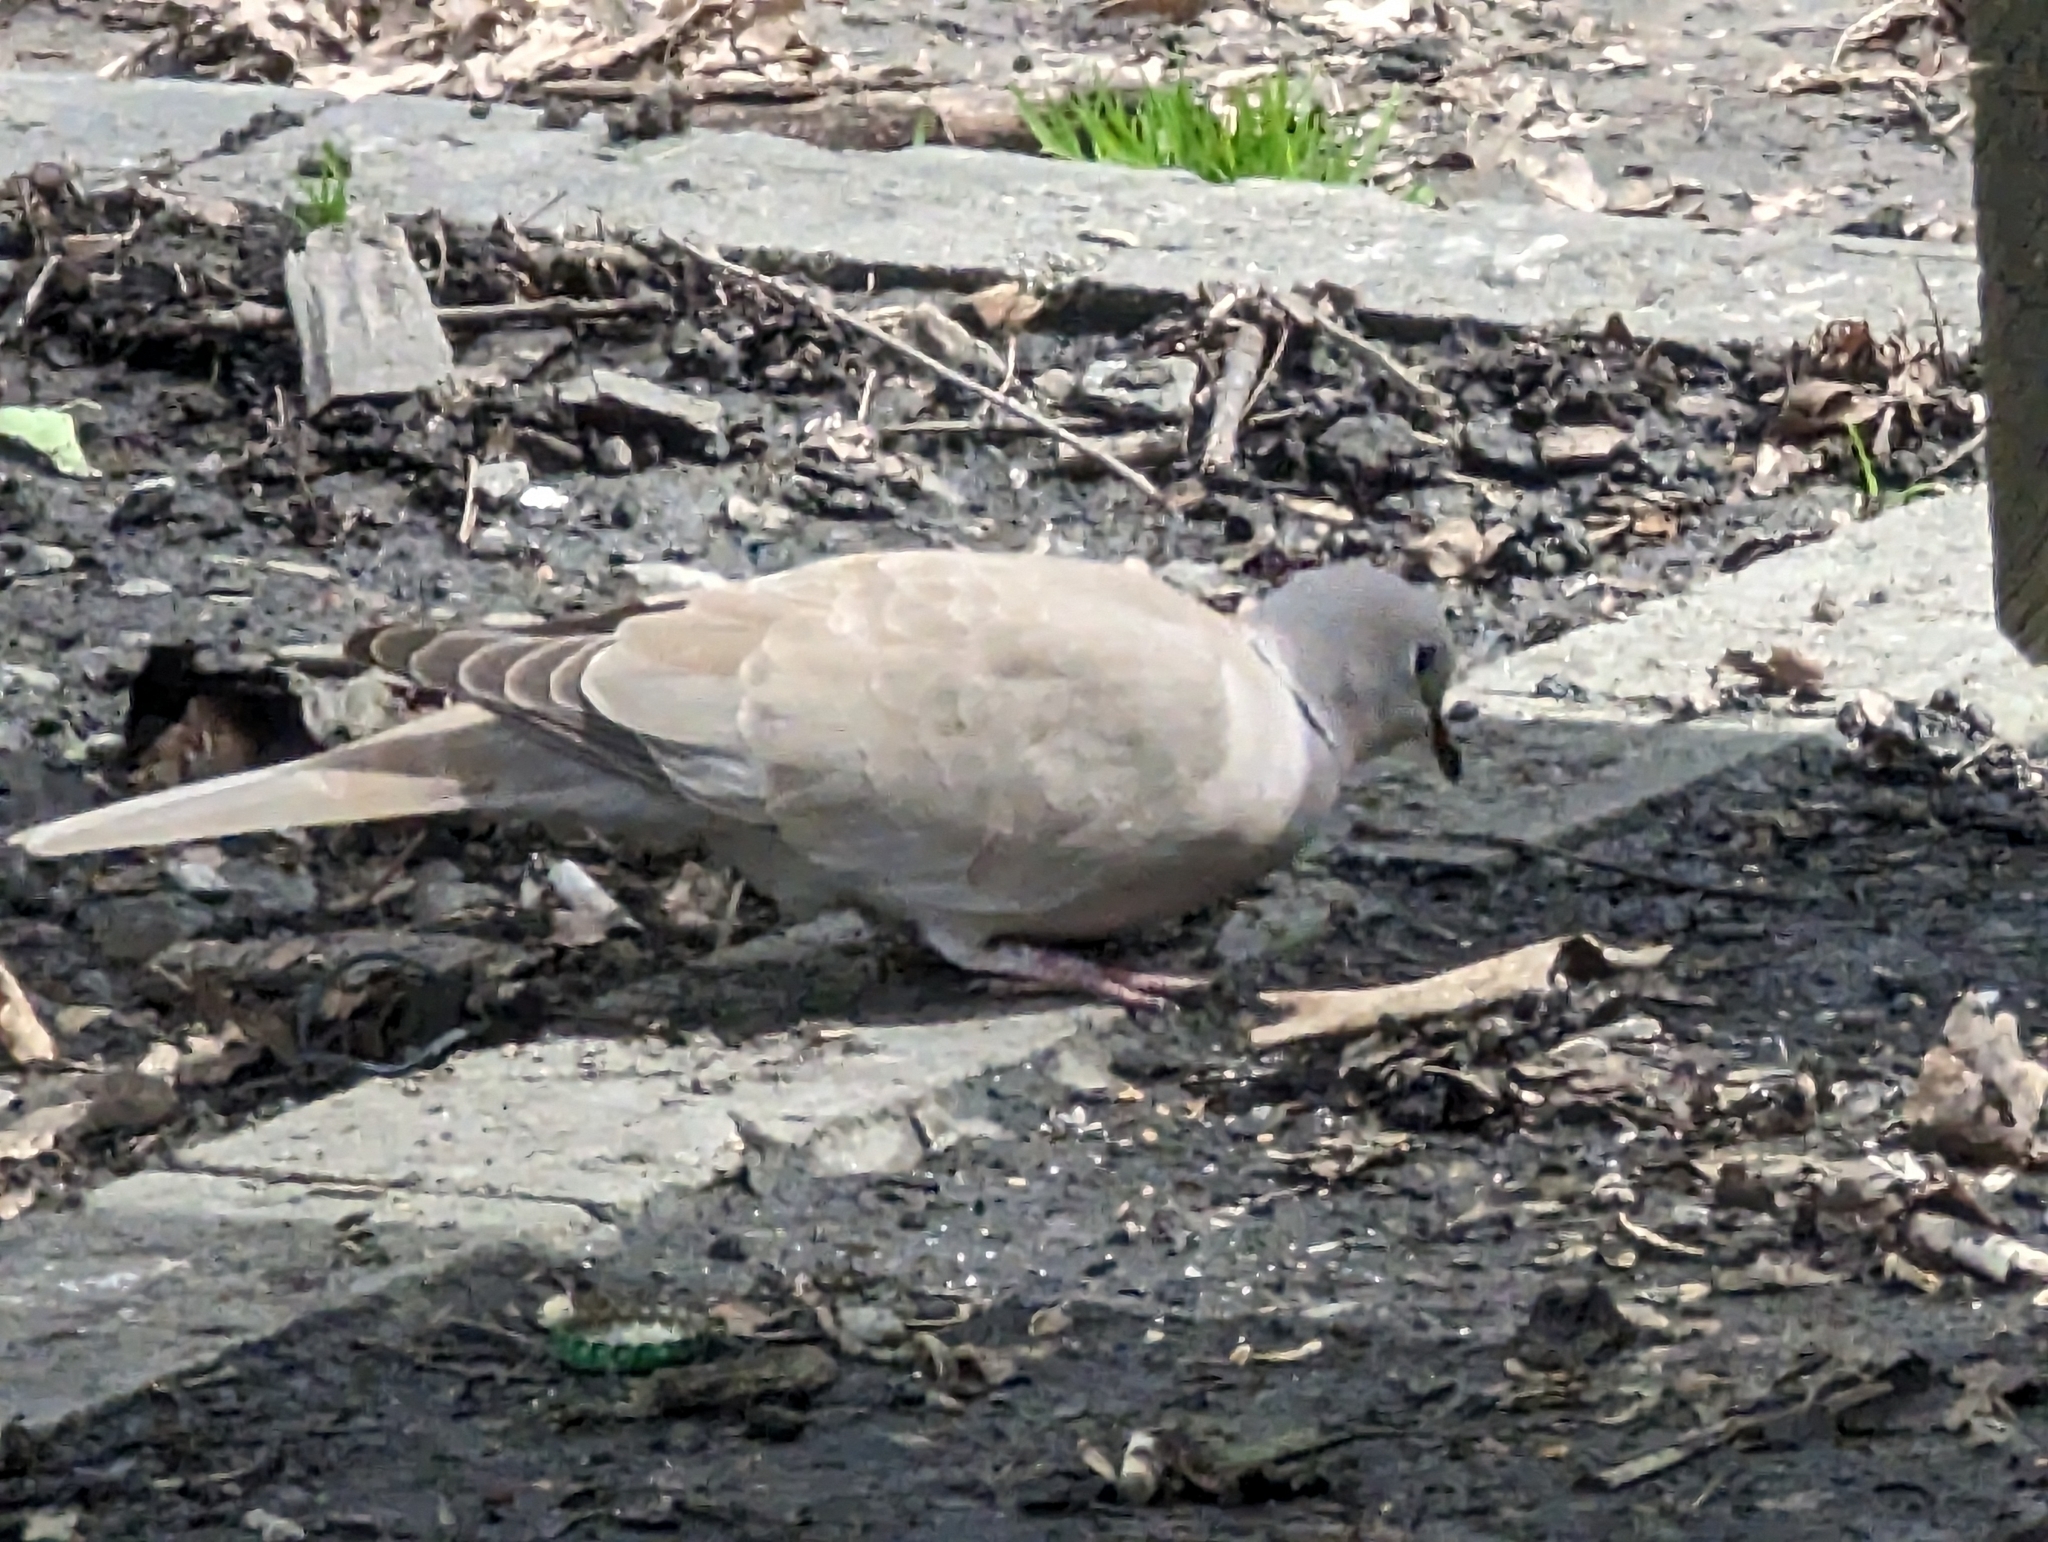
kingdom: Animalia
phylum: Chordata
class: Aves
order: Columbiformes
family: Columbidae
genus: Streptopelia
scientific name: Streptopelia decaocto
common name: Eurasian collared dove
